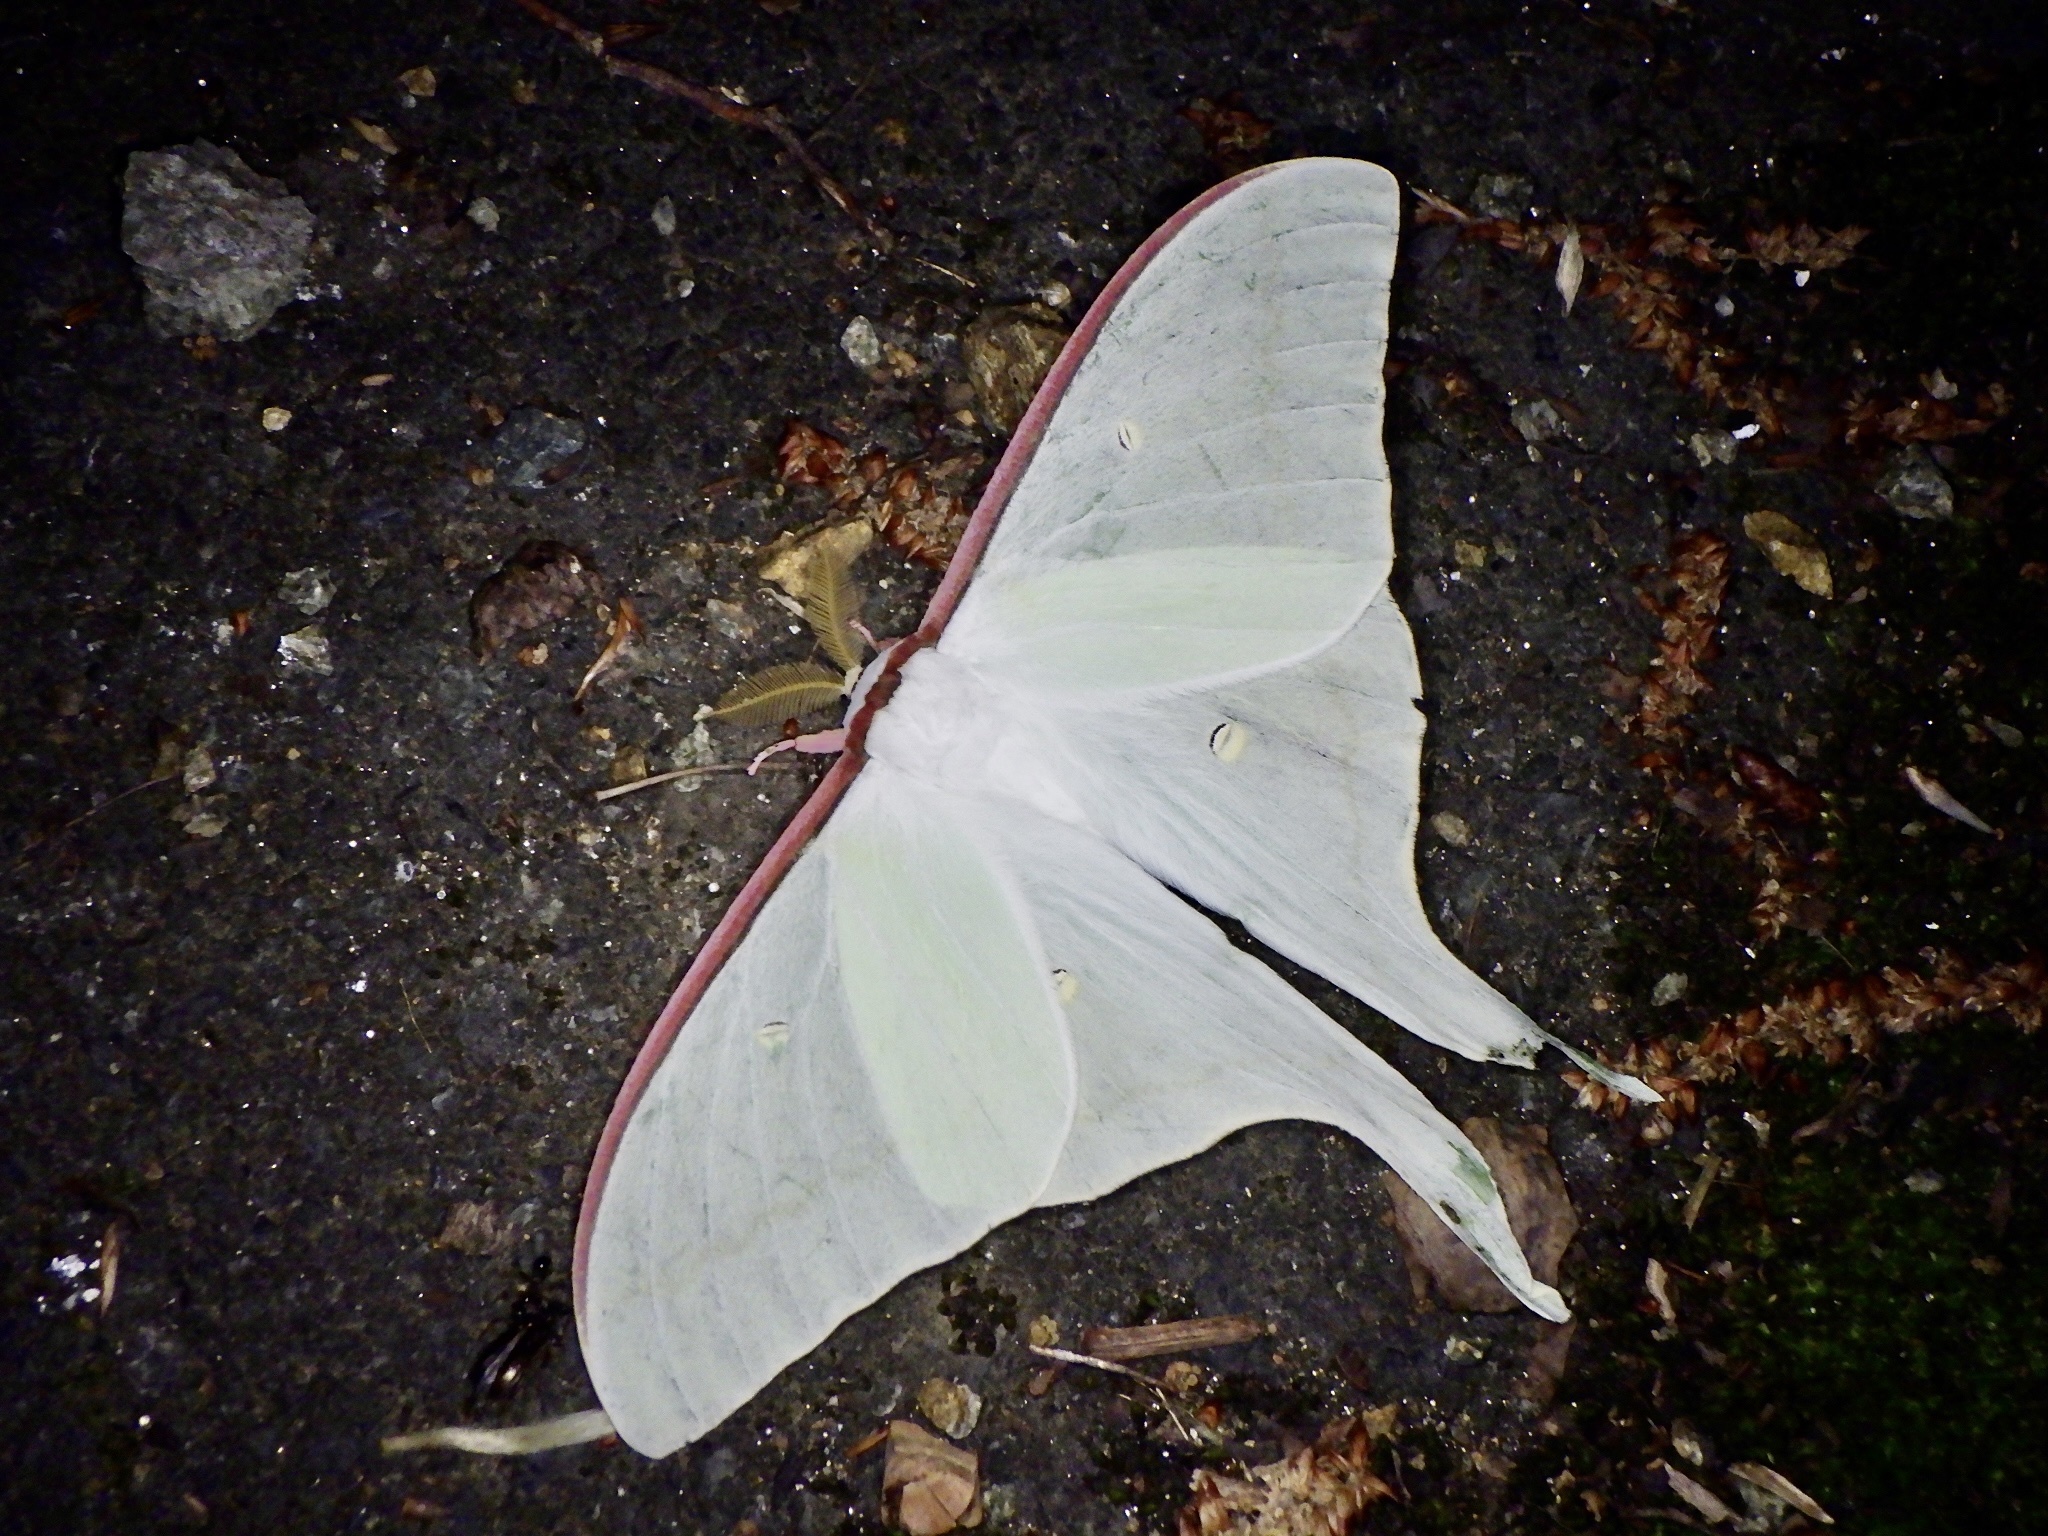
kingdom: Animalia
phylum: Arthropoda
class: Insecta
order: Lepidoptera
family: Saturniidae
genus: Actias
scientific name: Actias aliena
